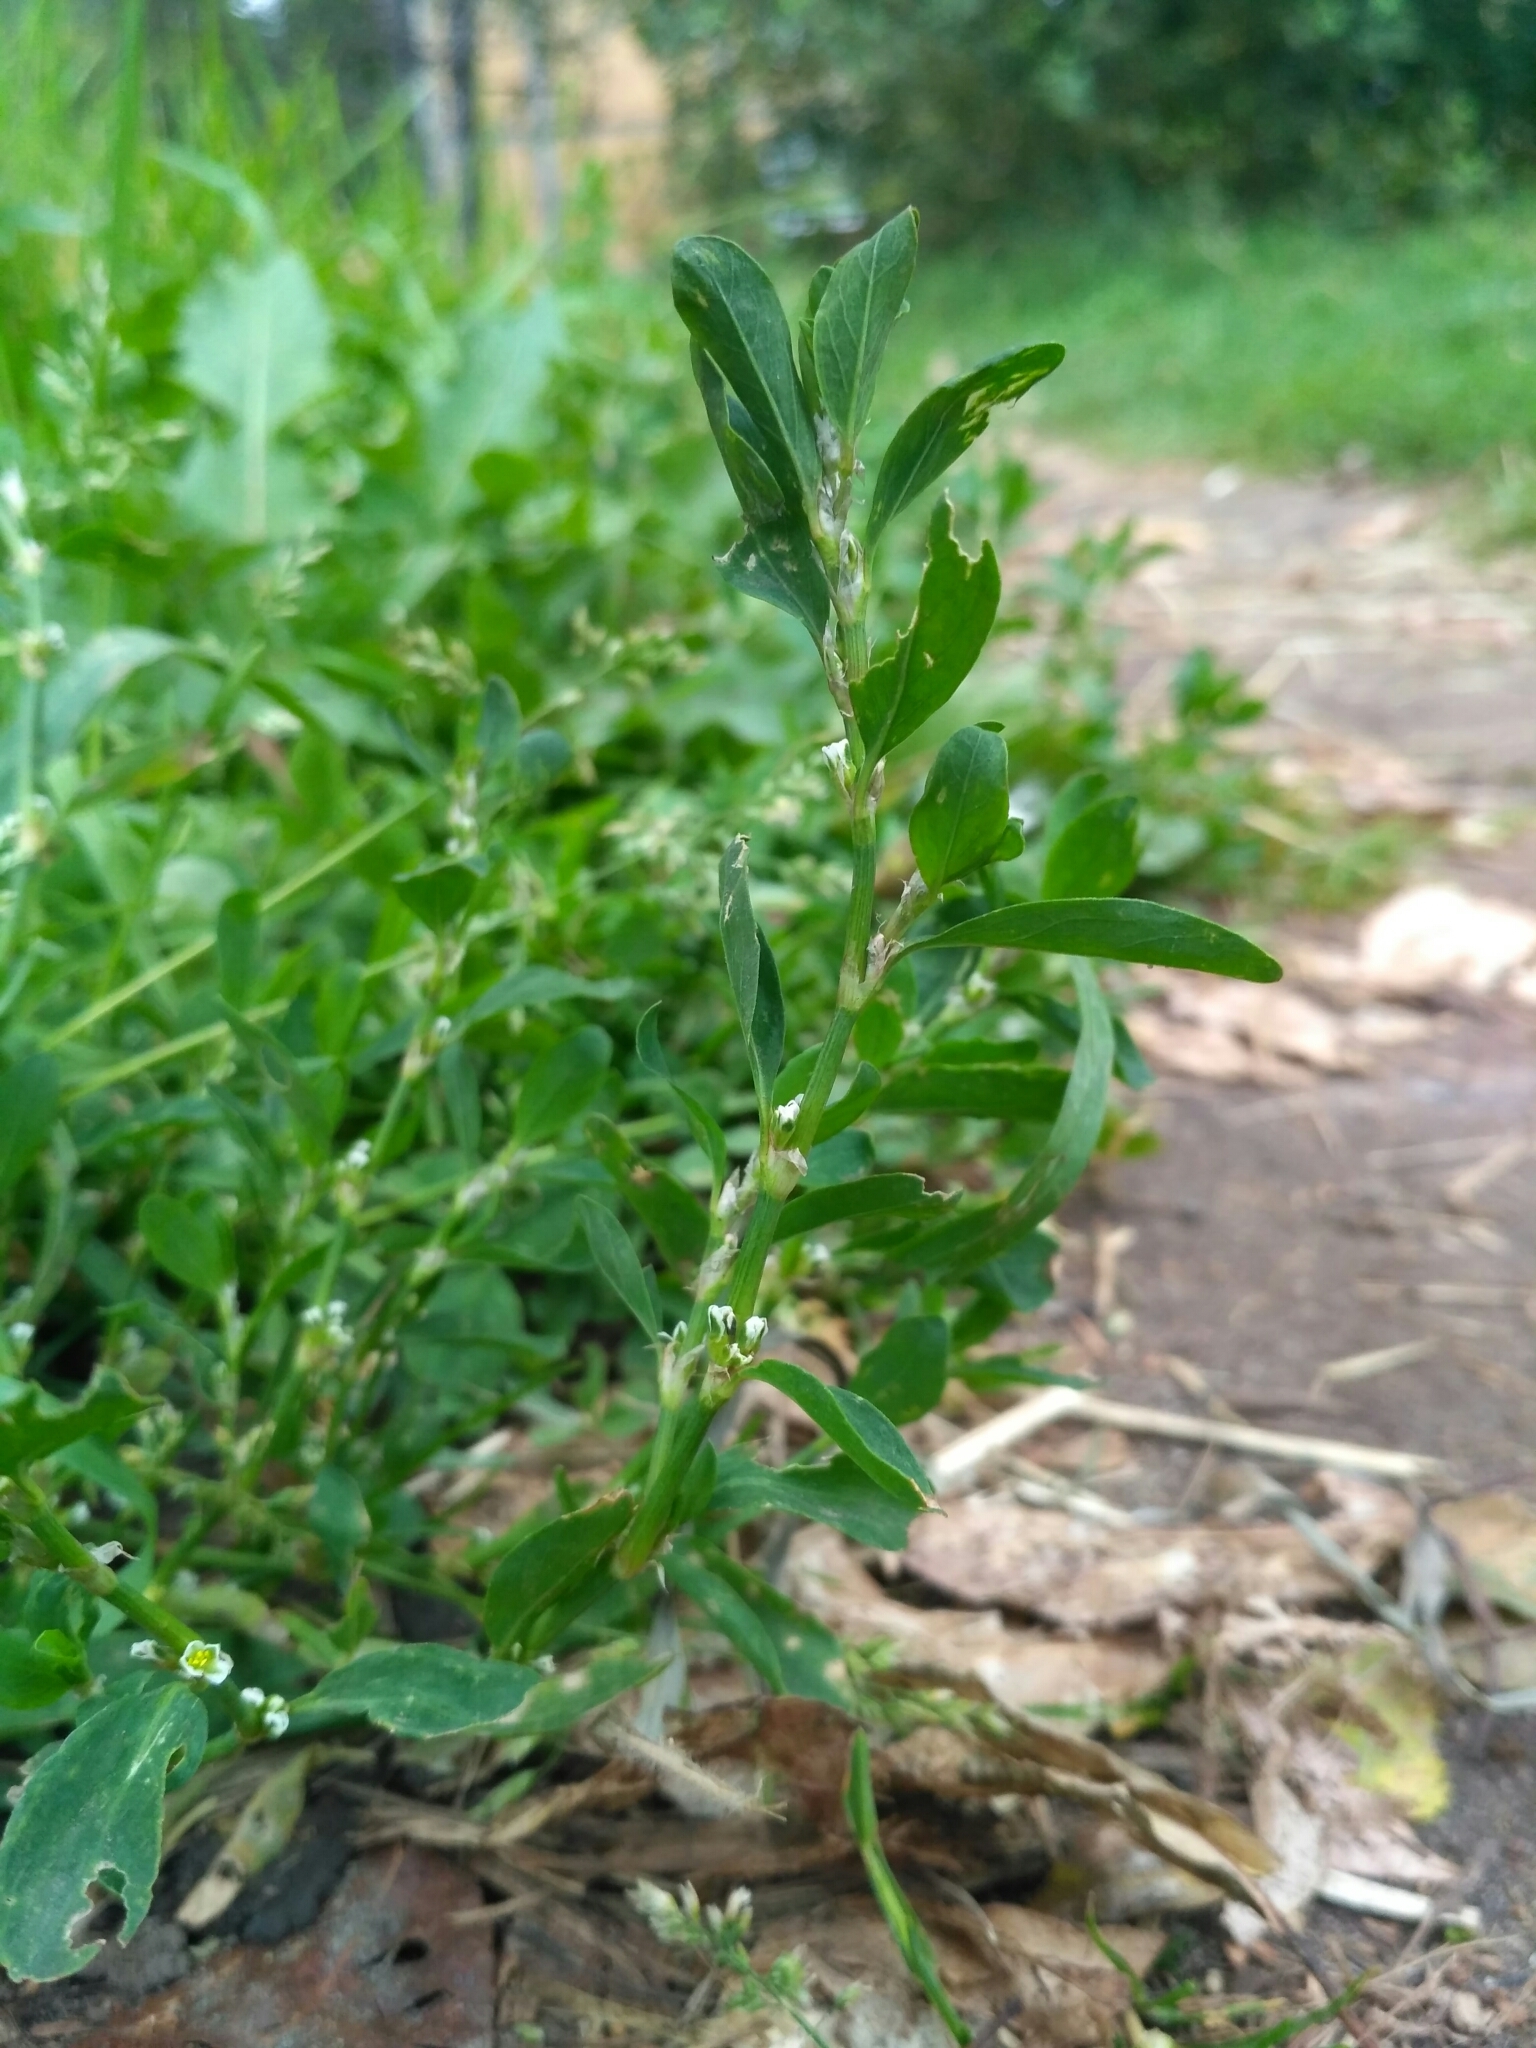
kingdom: Plantae
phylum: Tracheophyta
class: Magnoliopsida
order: Caryophyllales
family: Polygonaceae
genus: Polygonum
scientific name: Polygonum aviculare
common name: Prostrate knotweed
